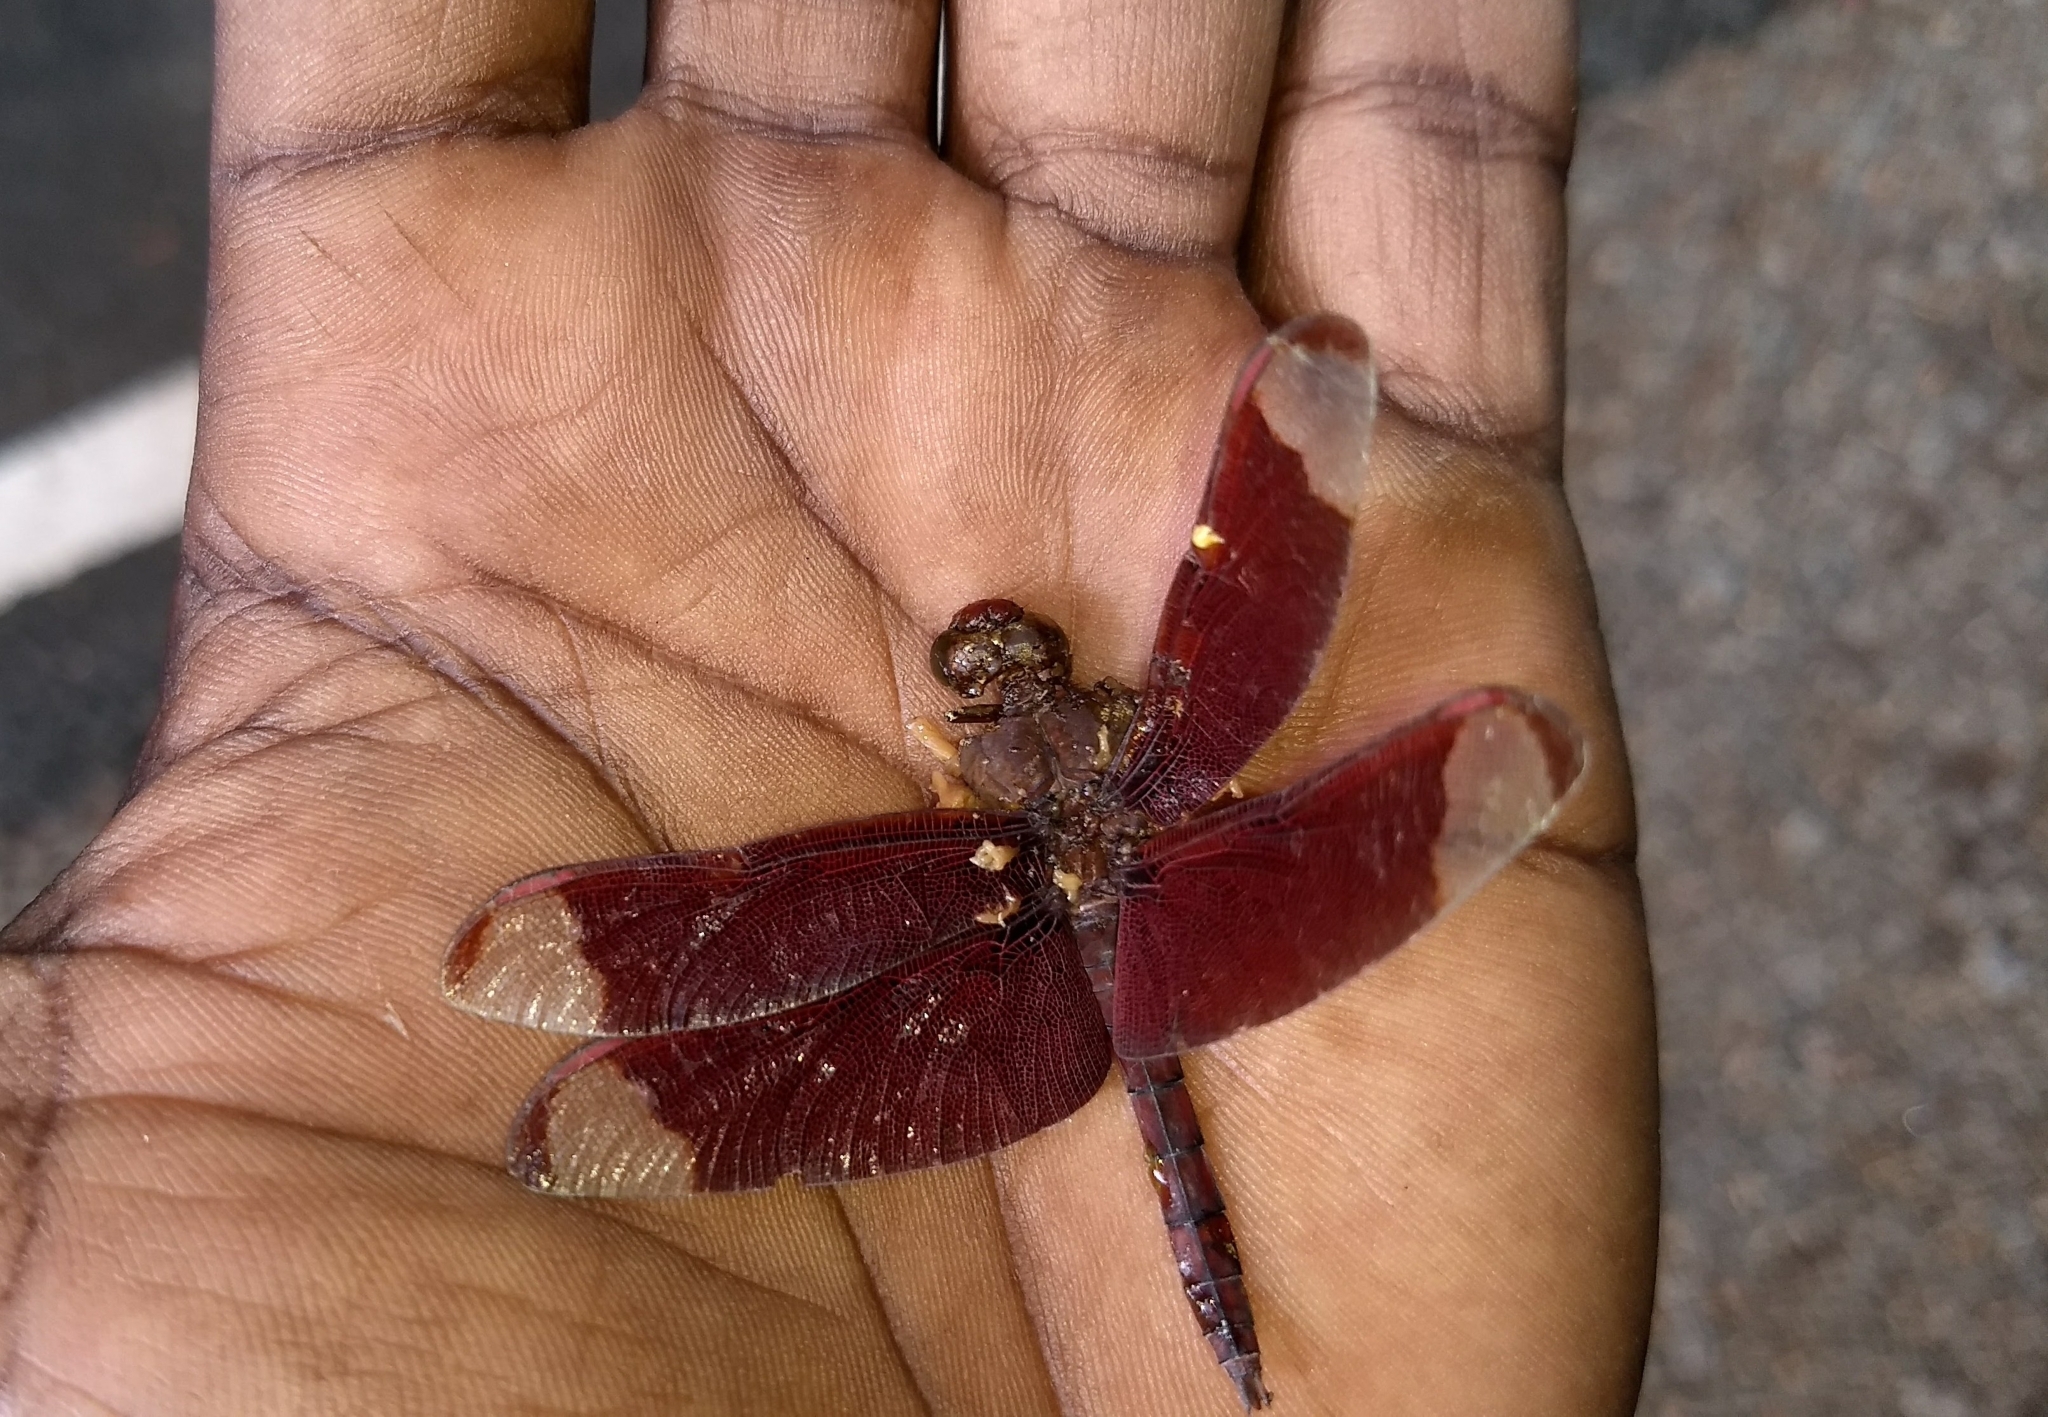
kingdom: Animalia
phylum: Arthropoda
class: Insecta
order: Odonata
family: Libellulidae
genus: Neurothemis
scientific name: Neurothemis fulvia
